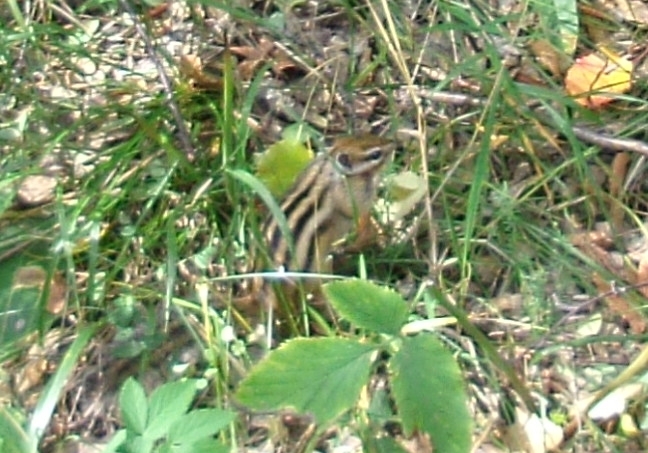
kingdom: Animalia
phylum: Chordata
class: Mammalia
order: Rodentia
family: Sciuridae
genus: Tamias
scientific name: Tamias sibiricus
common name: Siberian chipmunk
